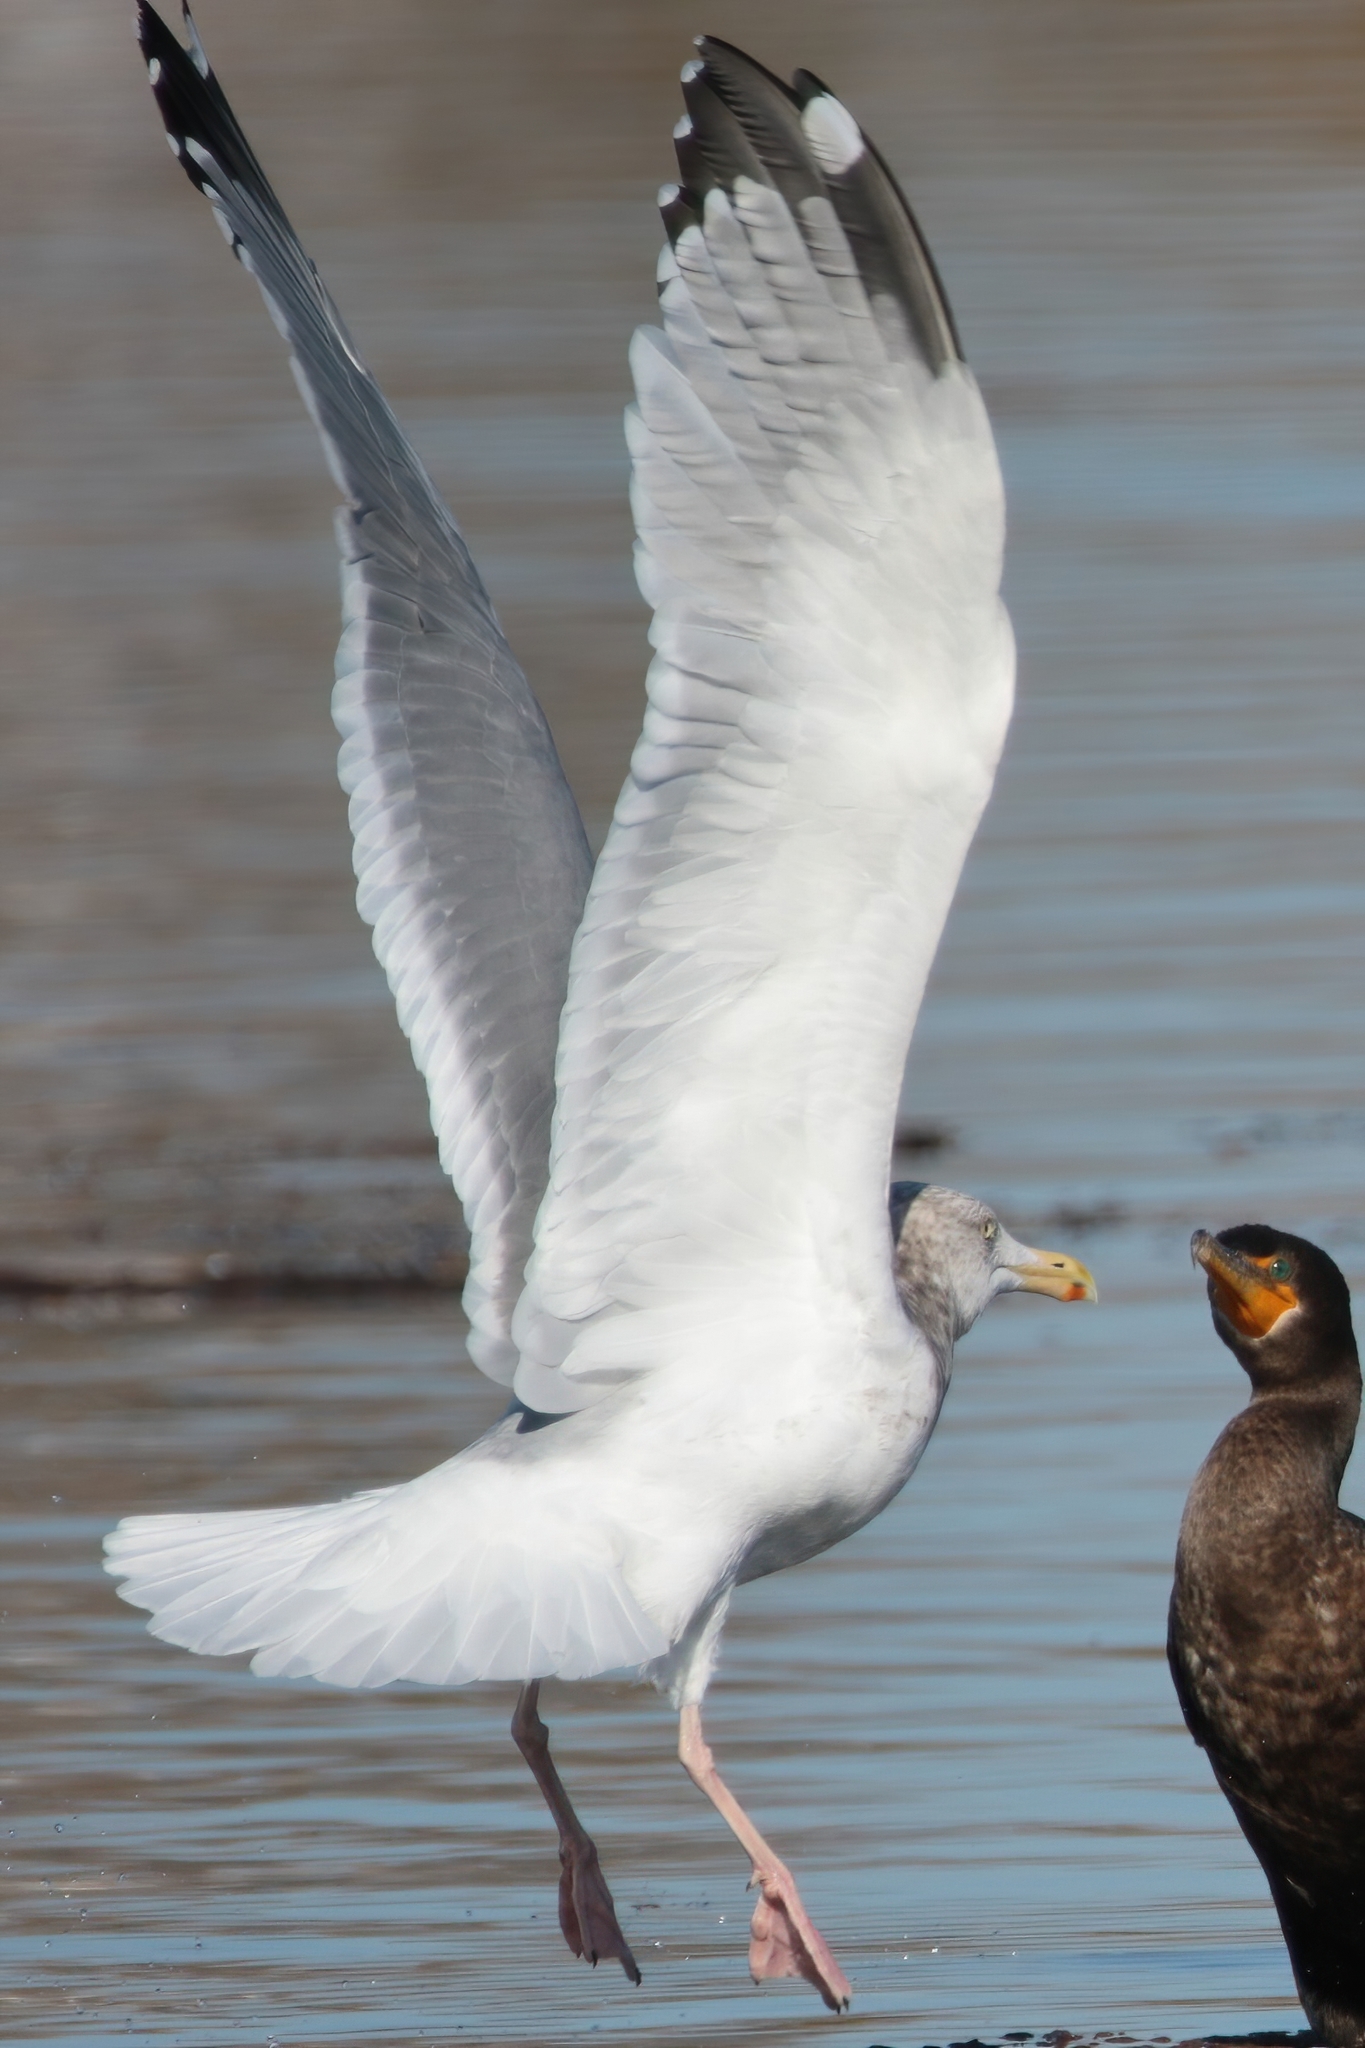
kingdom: Animalia
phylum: Chordata
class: Aves
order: Charadriiformes
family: Laridae
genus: Larus
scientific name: Larus argentatus
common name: Herring gull
